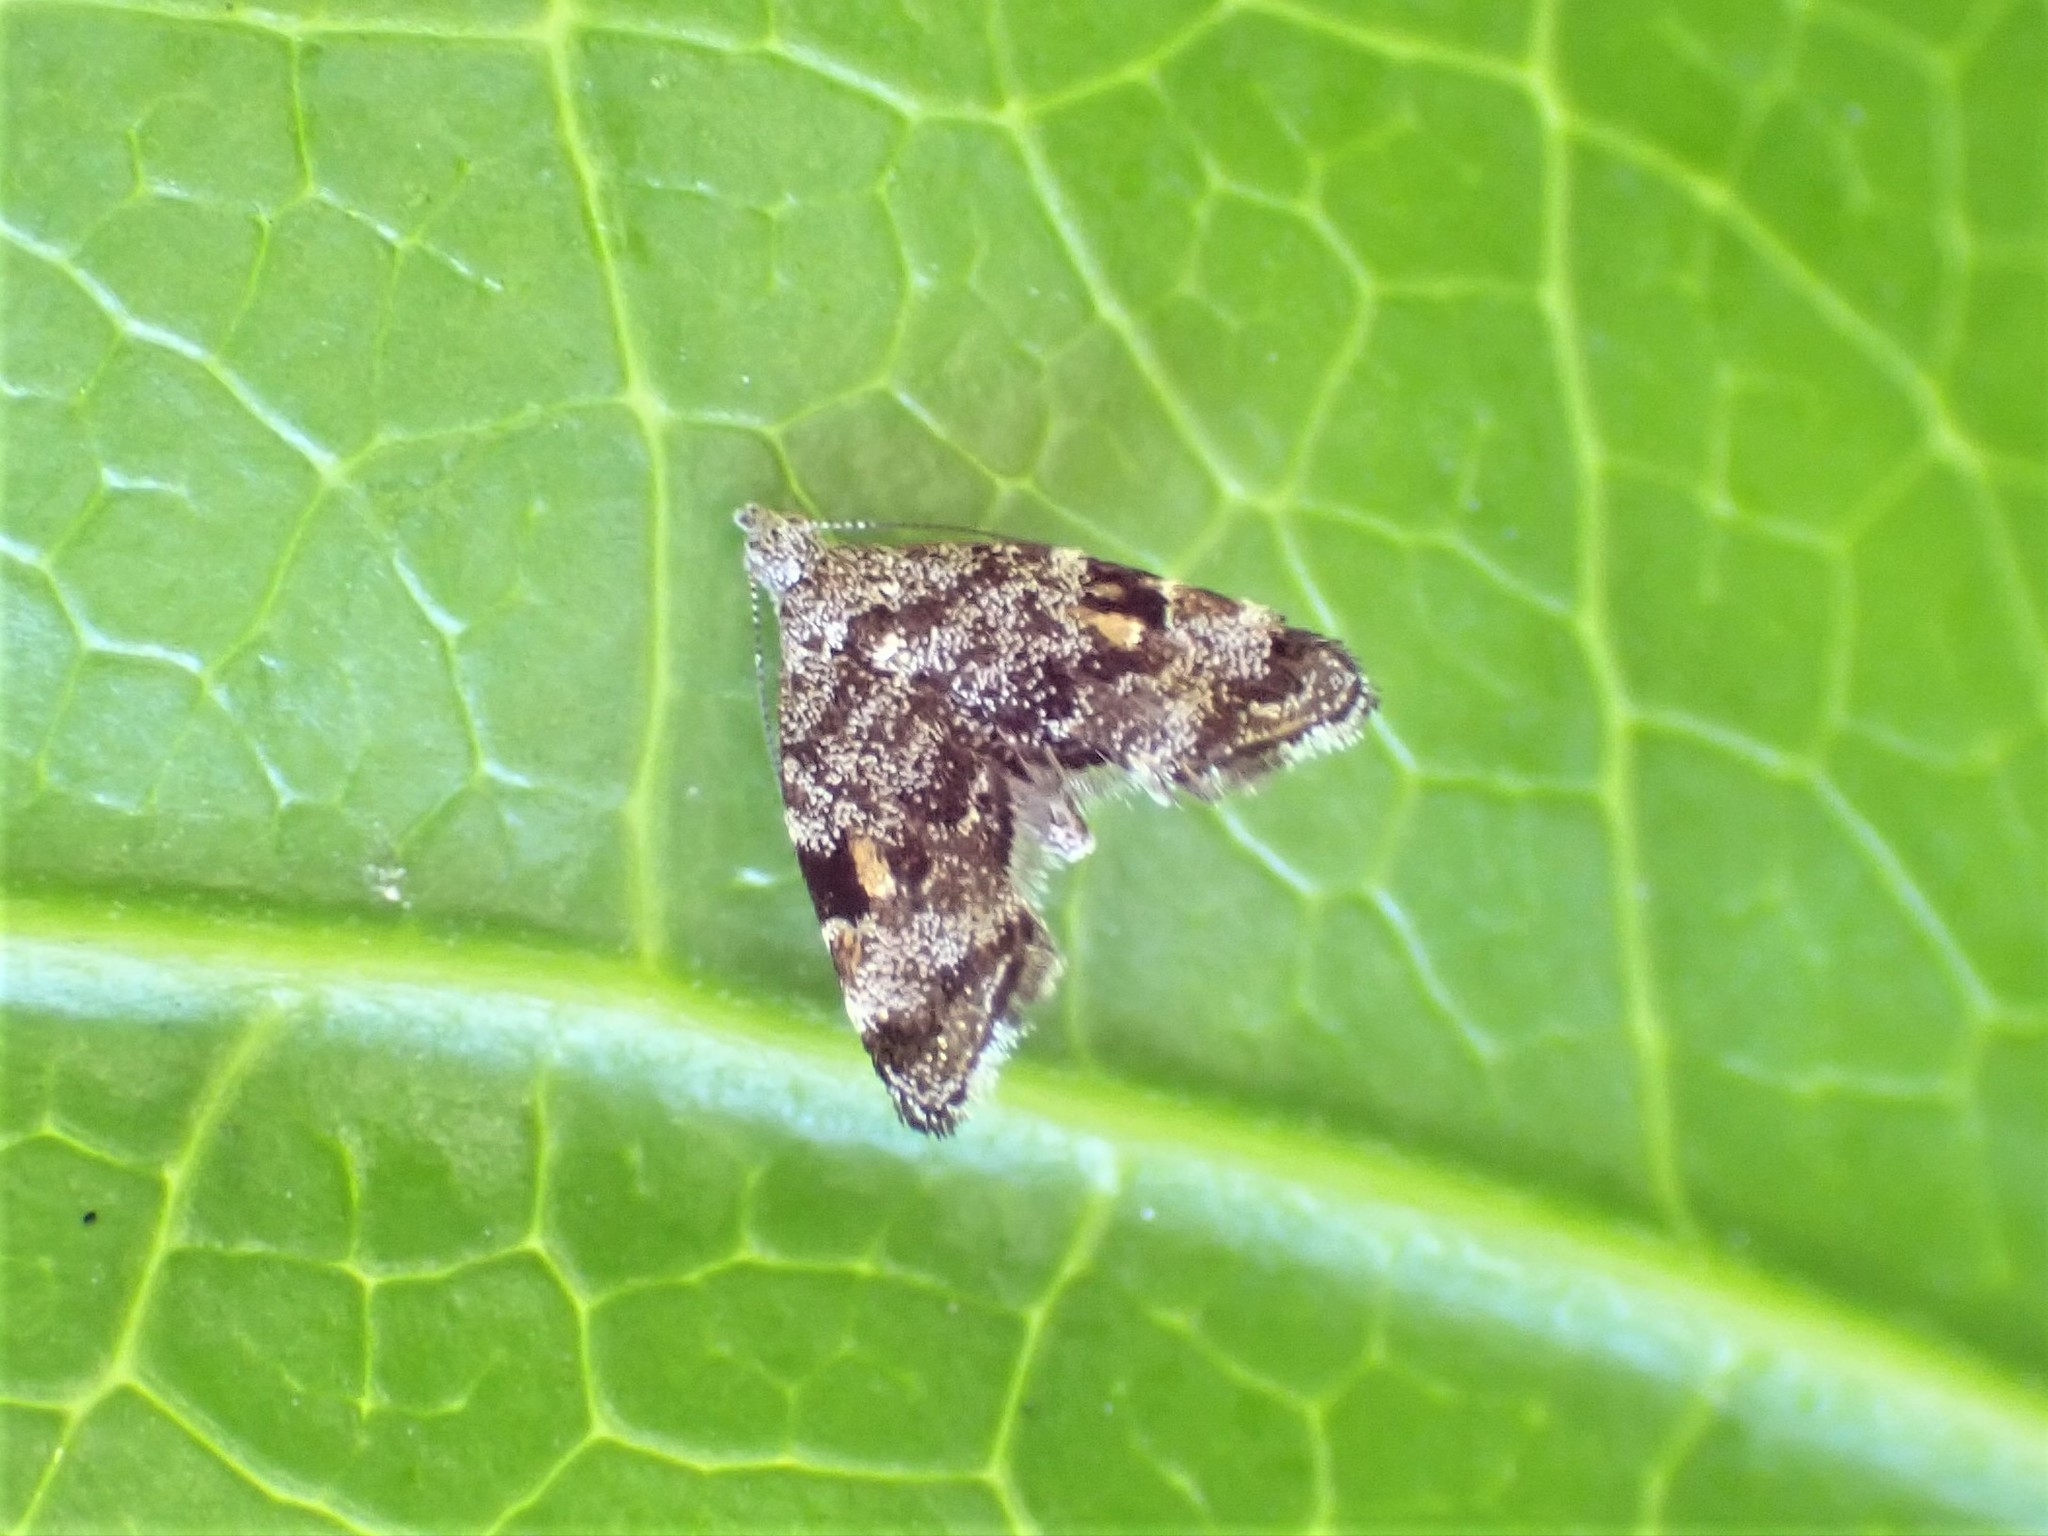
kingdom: Animalia
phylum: Arthropoda
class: Insecta
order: Lepidoptera
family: Choreutidae
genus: Asterivora
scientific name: Asterivora antigrapha
